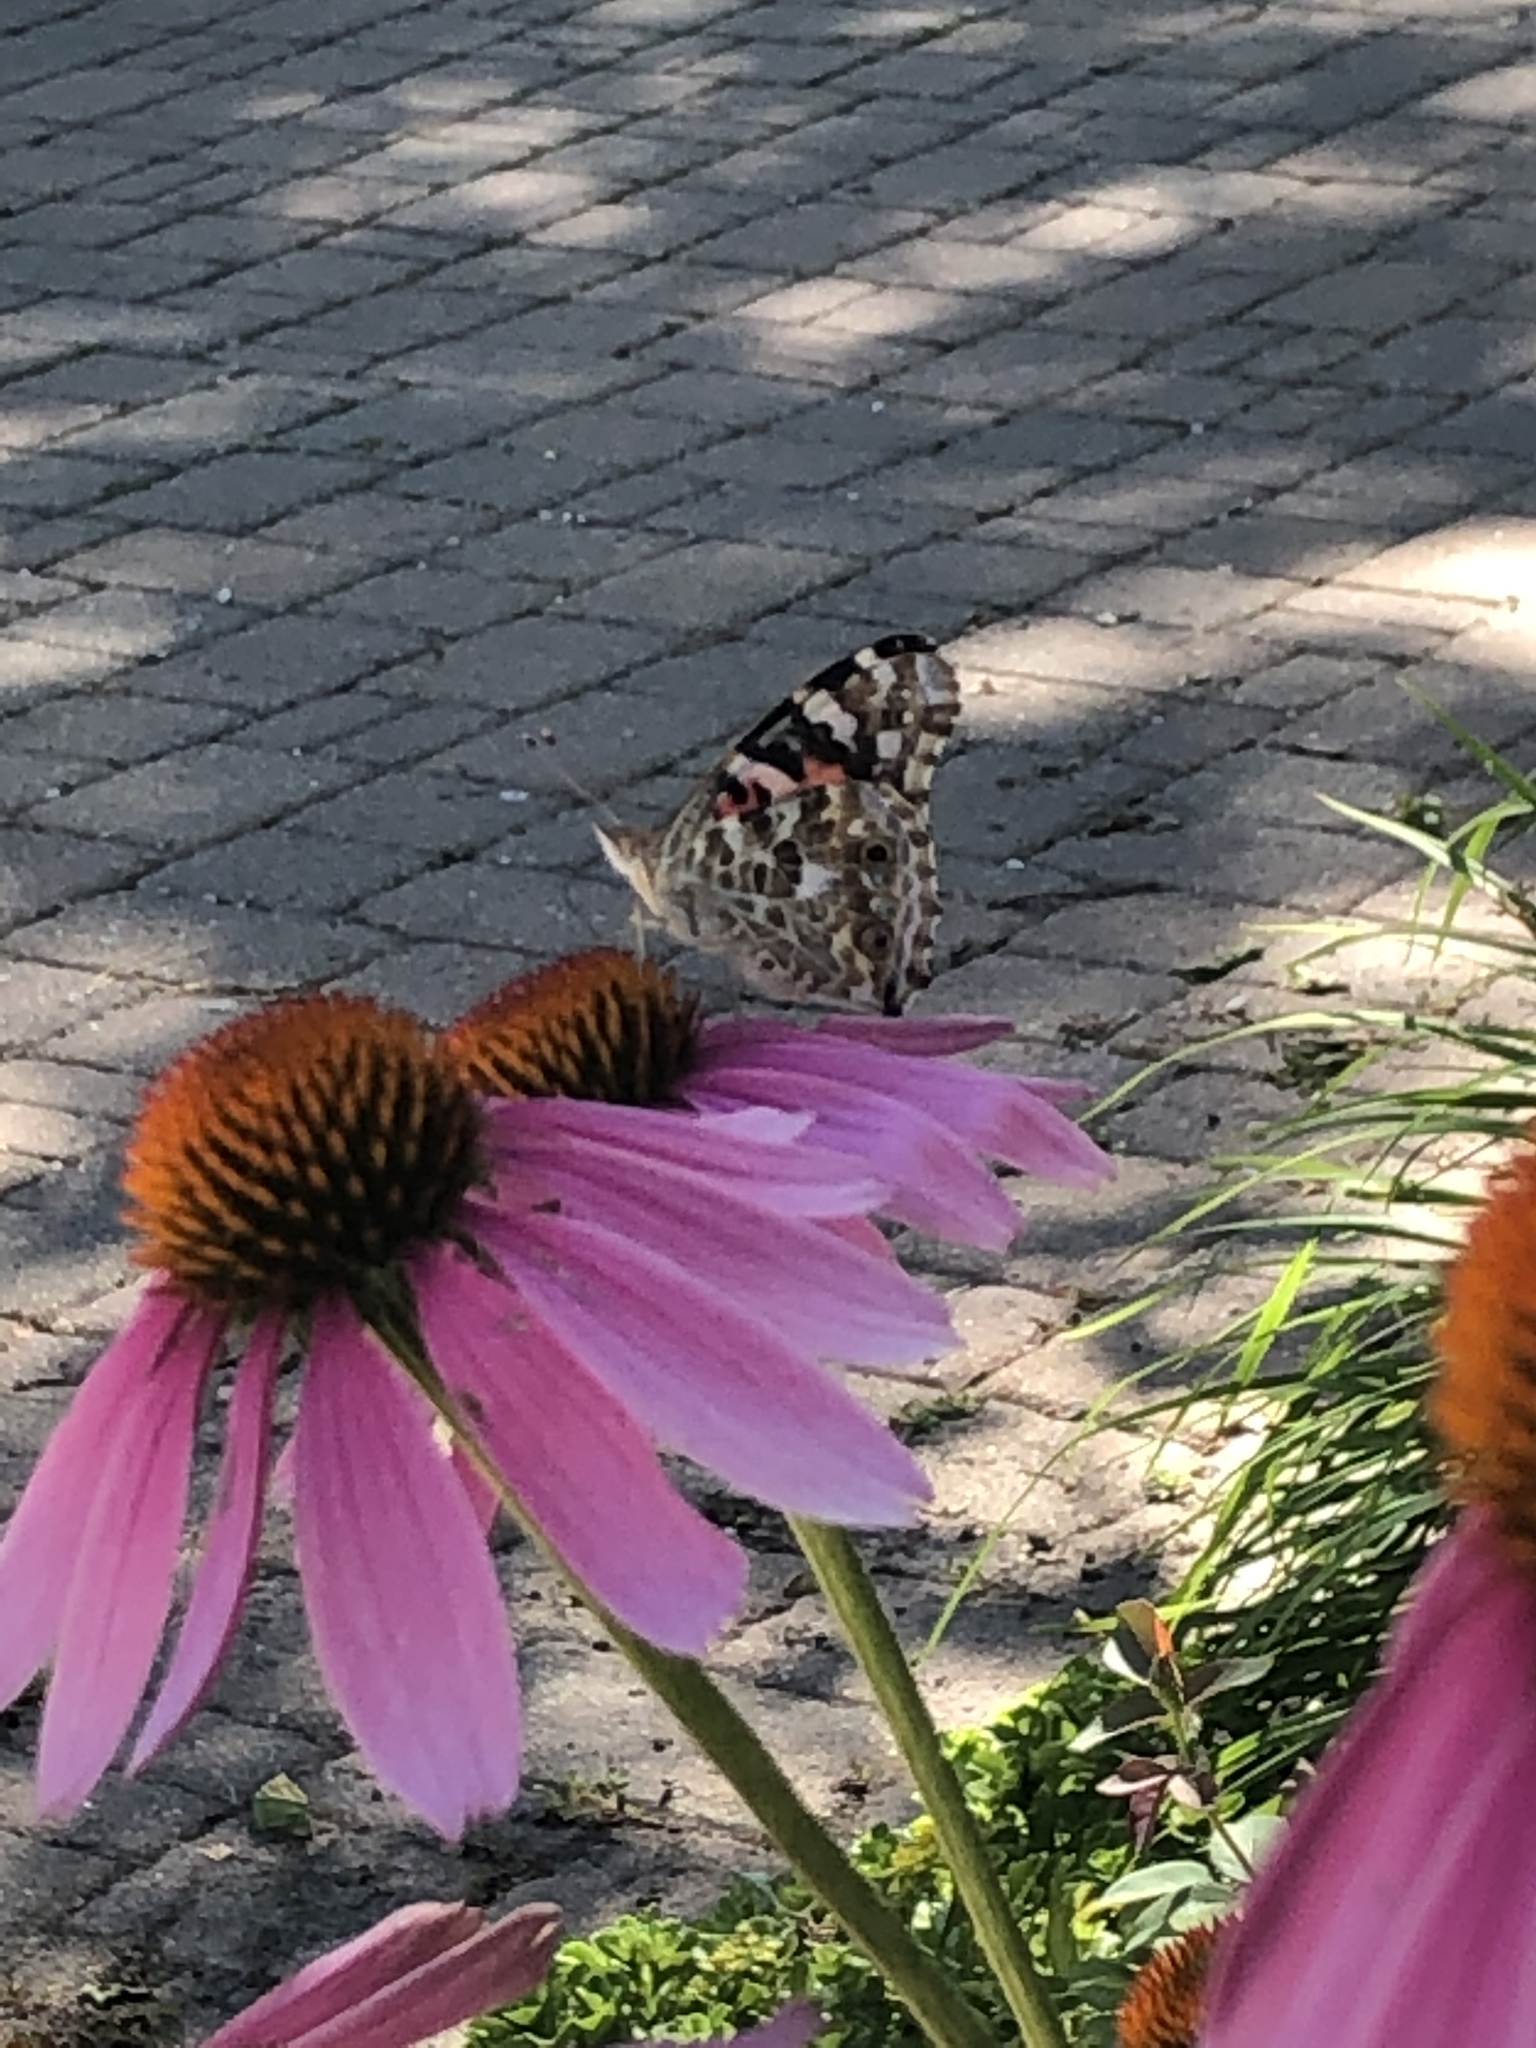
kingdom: Animalia
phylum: Arthropoda
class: Insecta
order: Lepidoptera
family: Nymphalidae
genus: Vanessa
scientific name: Vanessa cardui
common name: Painted lady
